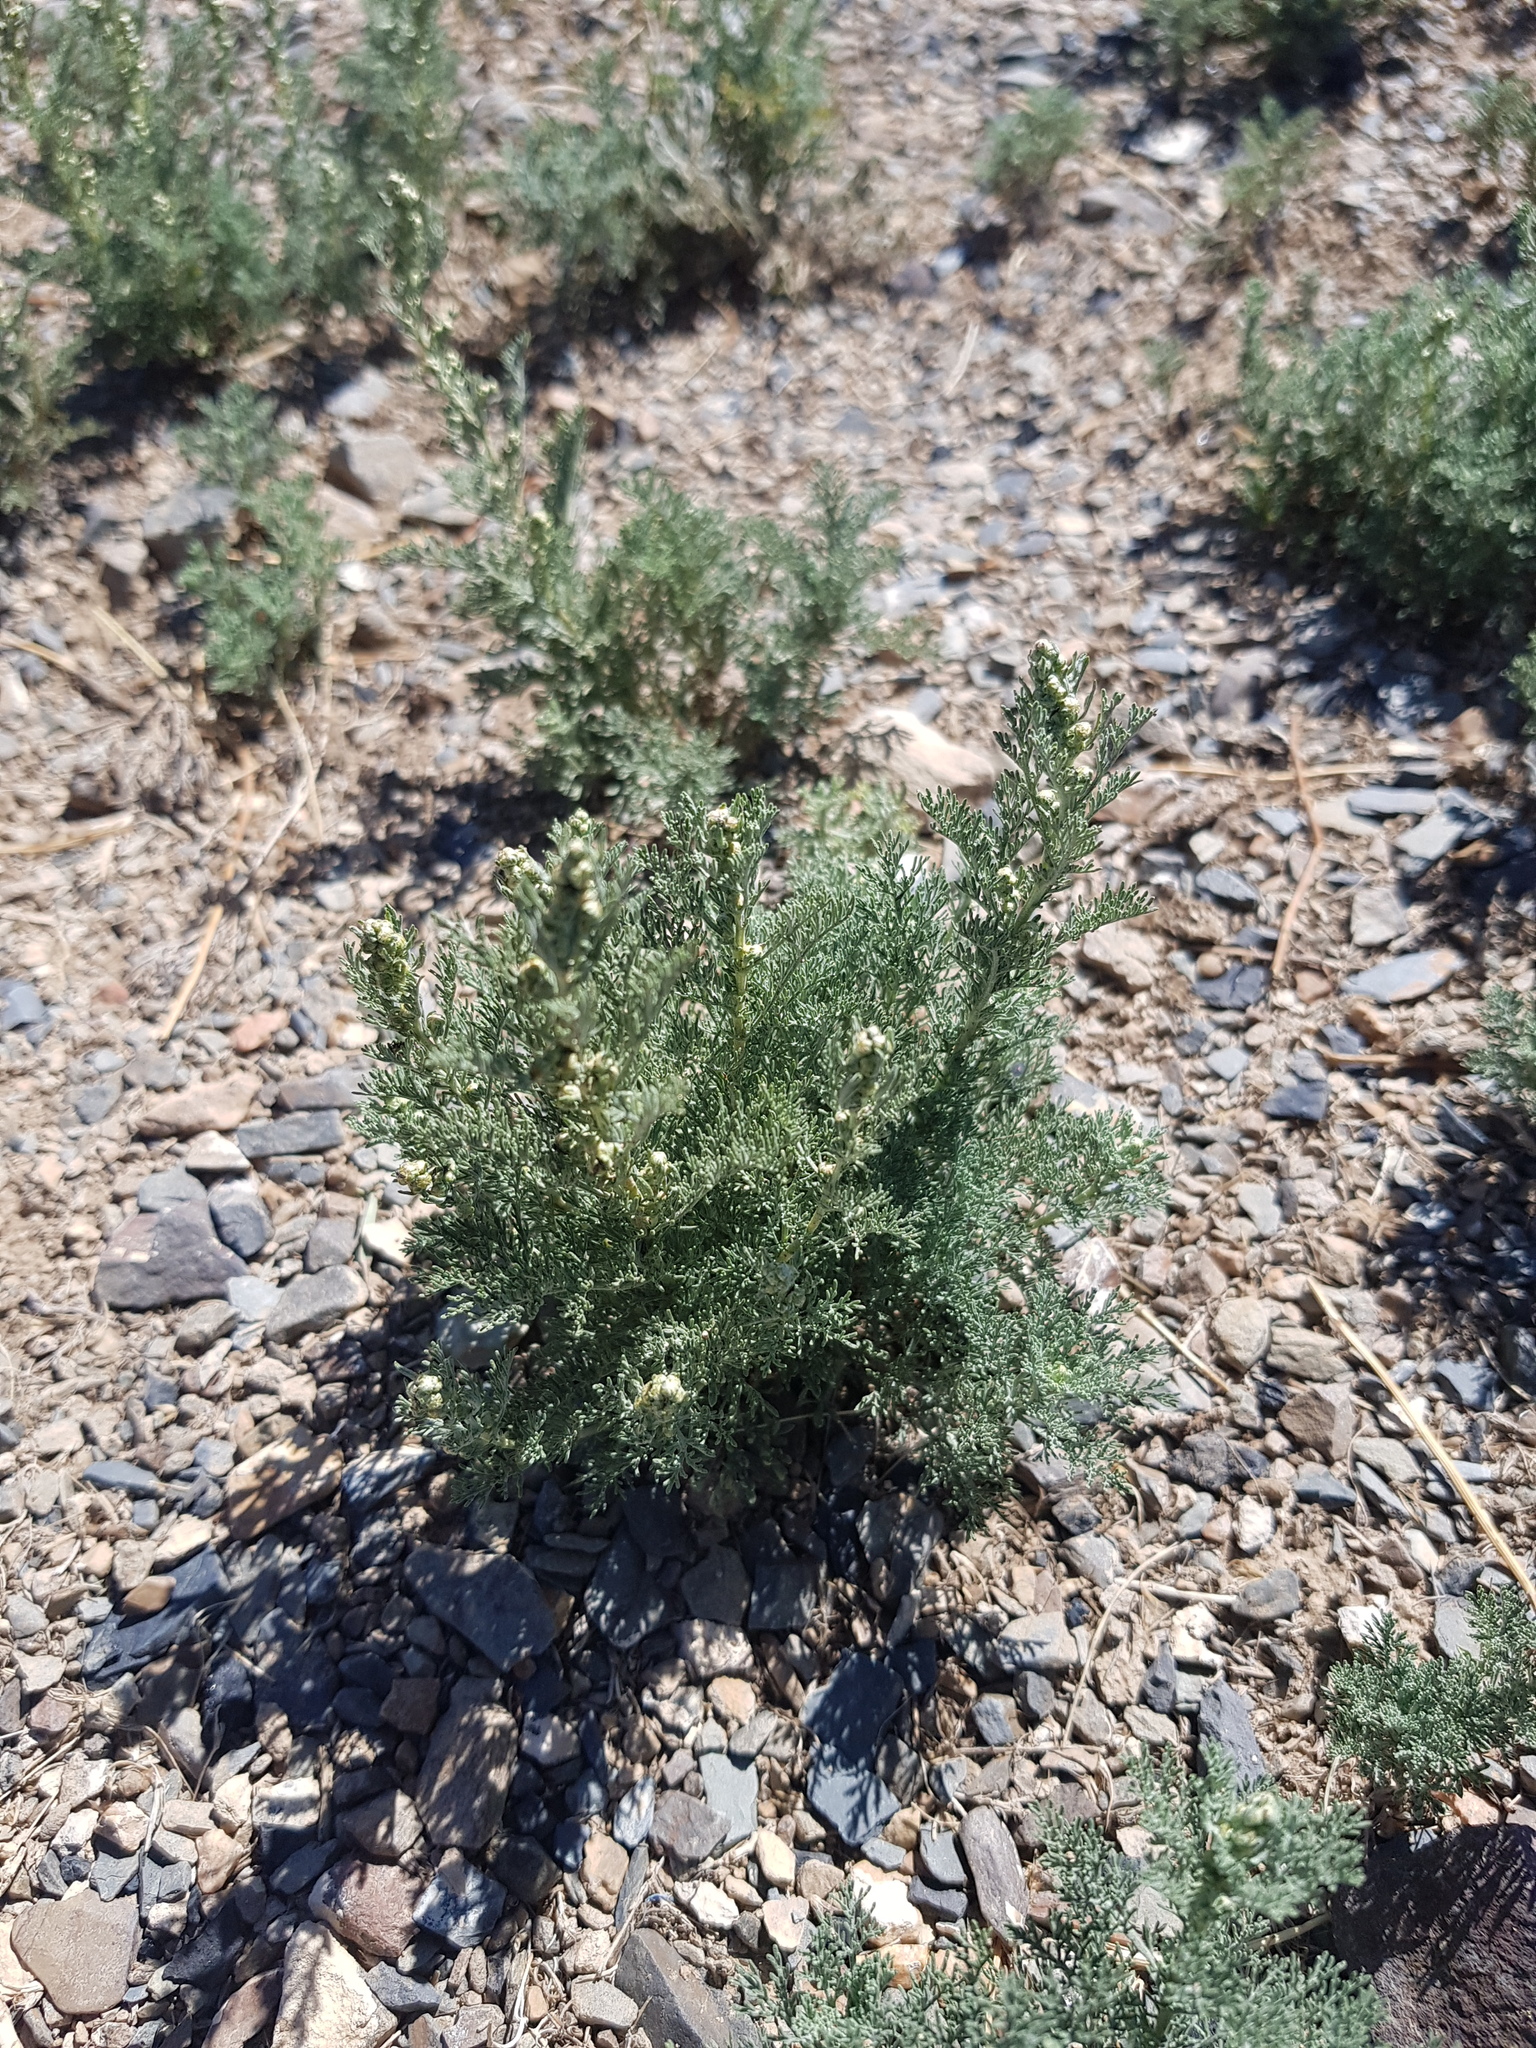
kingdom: Plantae
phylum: Tracheophyta
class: Magnoliopsida
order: Asterales
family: Asteraceae
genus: Artemisia
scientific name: Artemisia adamsii
